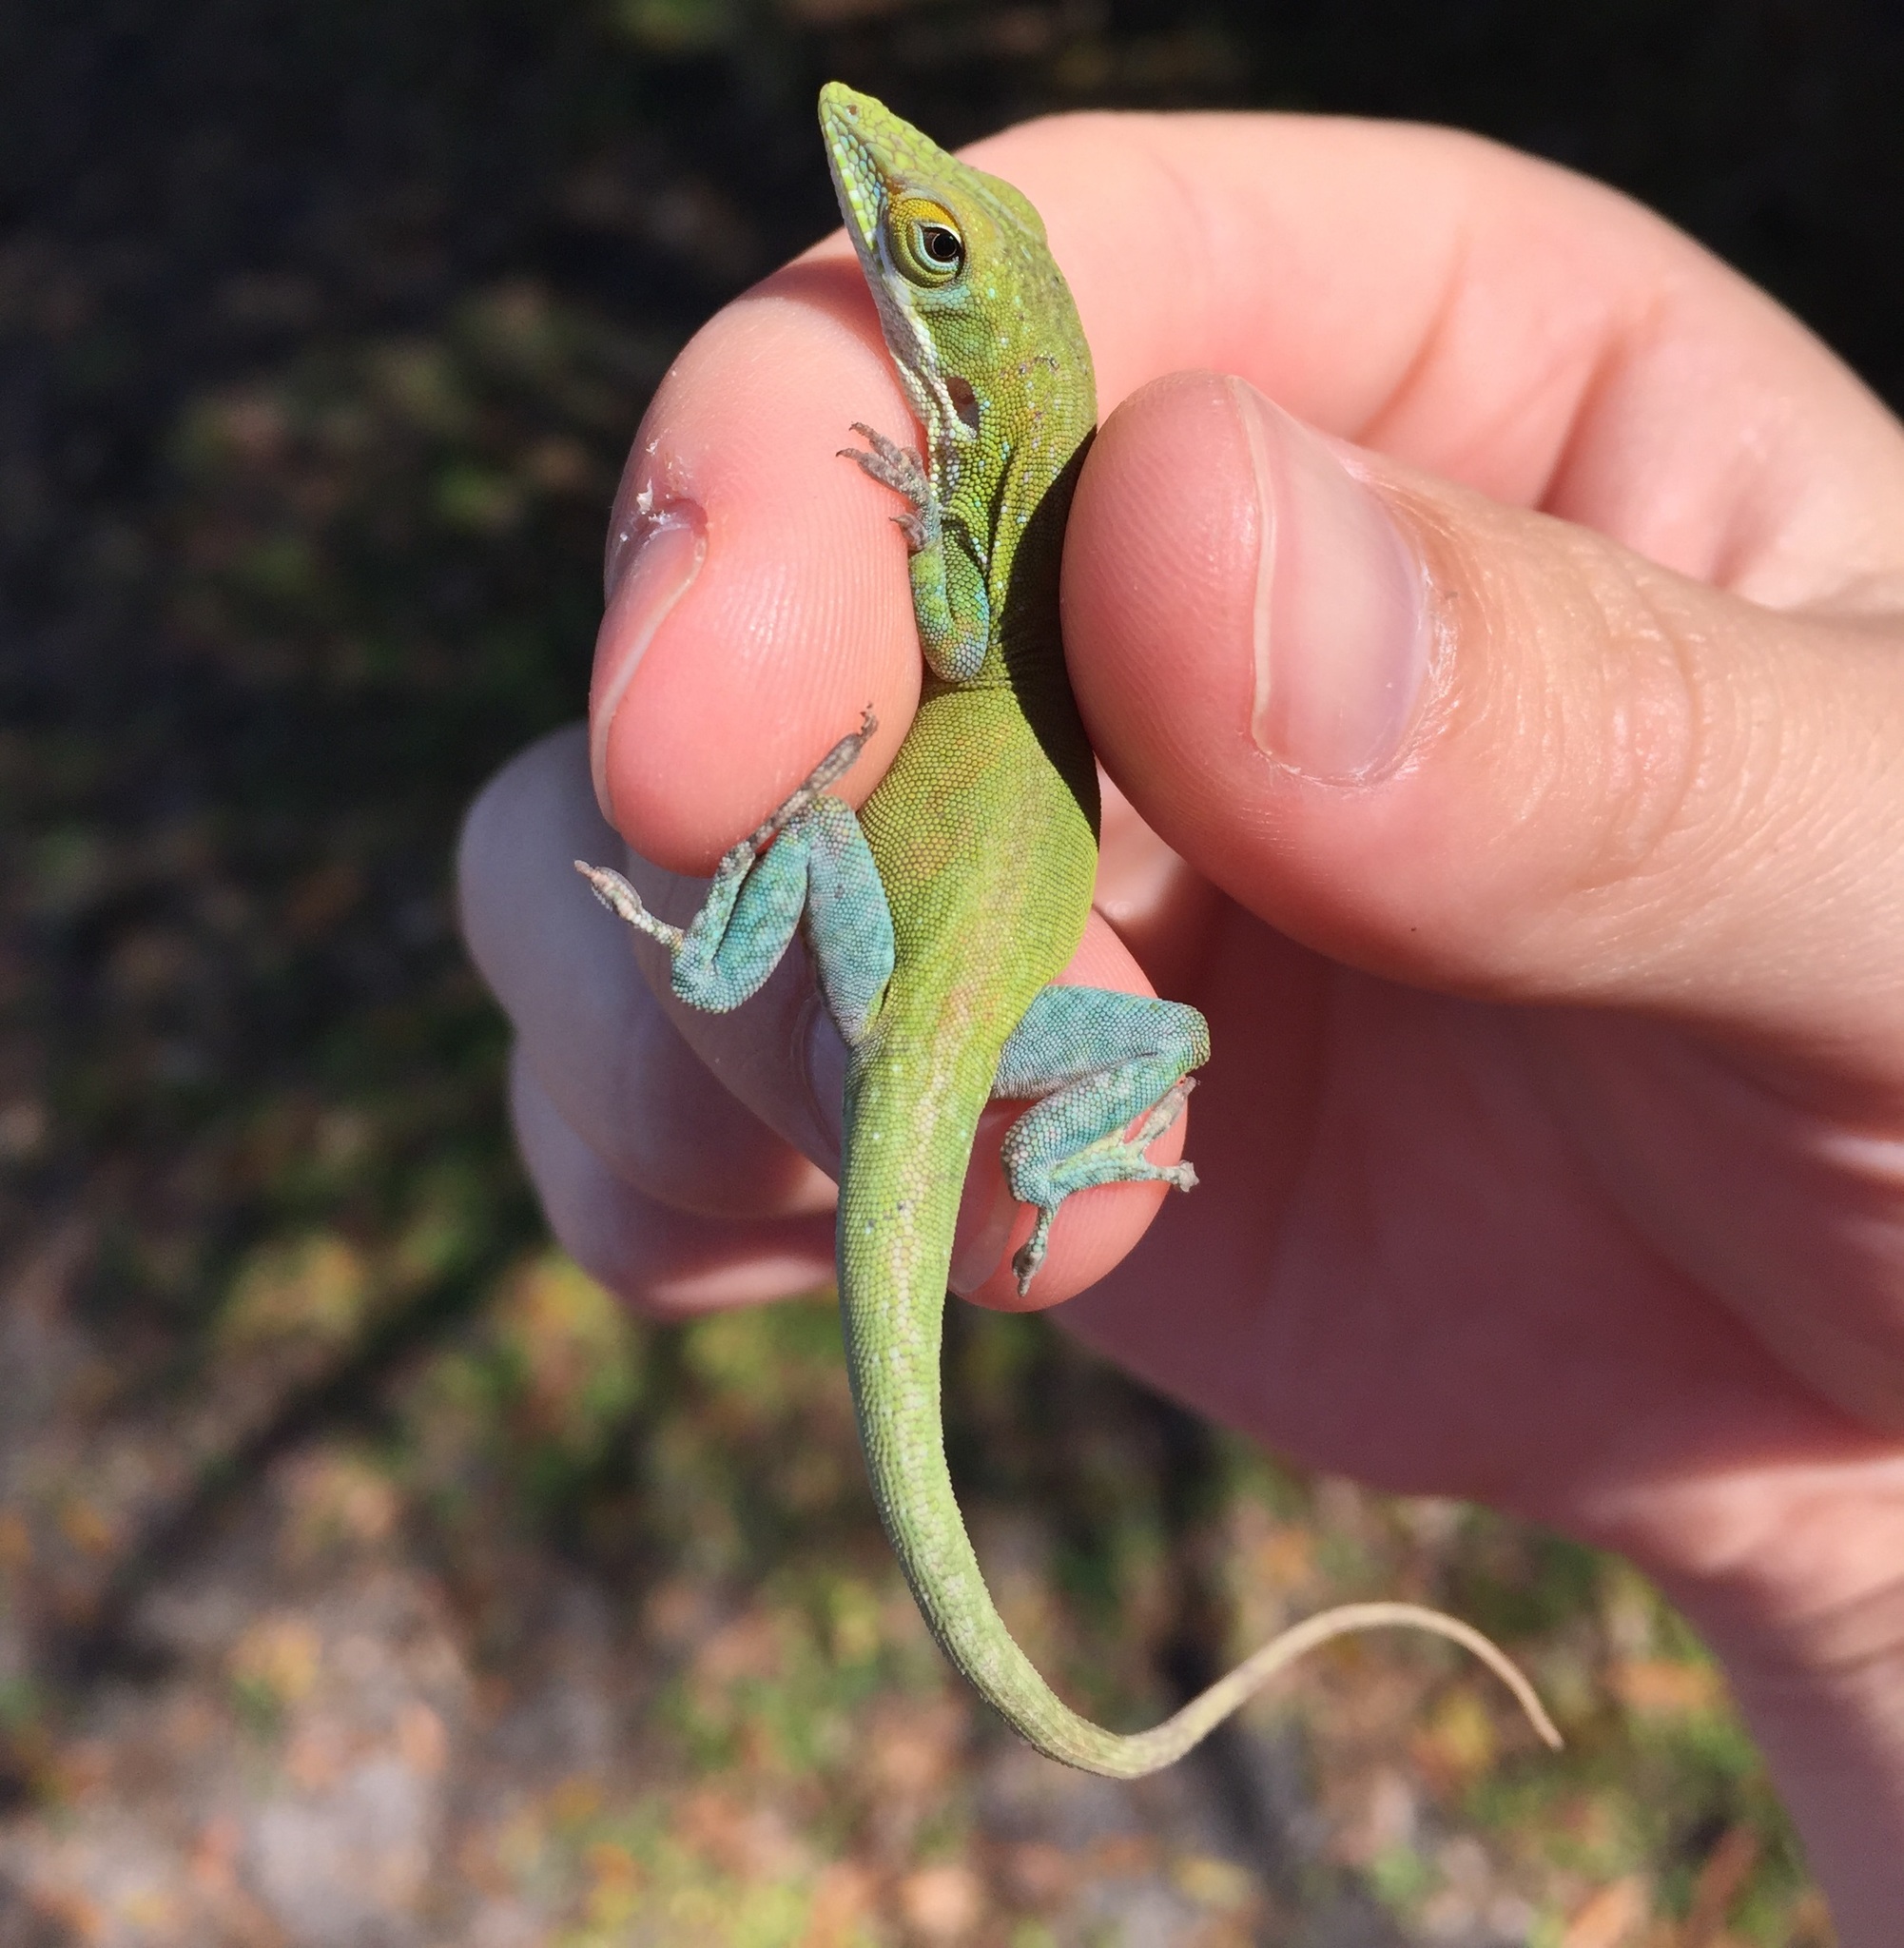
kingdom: Animalia
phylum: Chordata
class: Squamata
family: Dactyloidae
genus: Anolis
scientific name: Anolis allisoni
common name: Allison's anole
